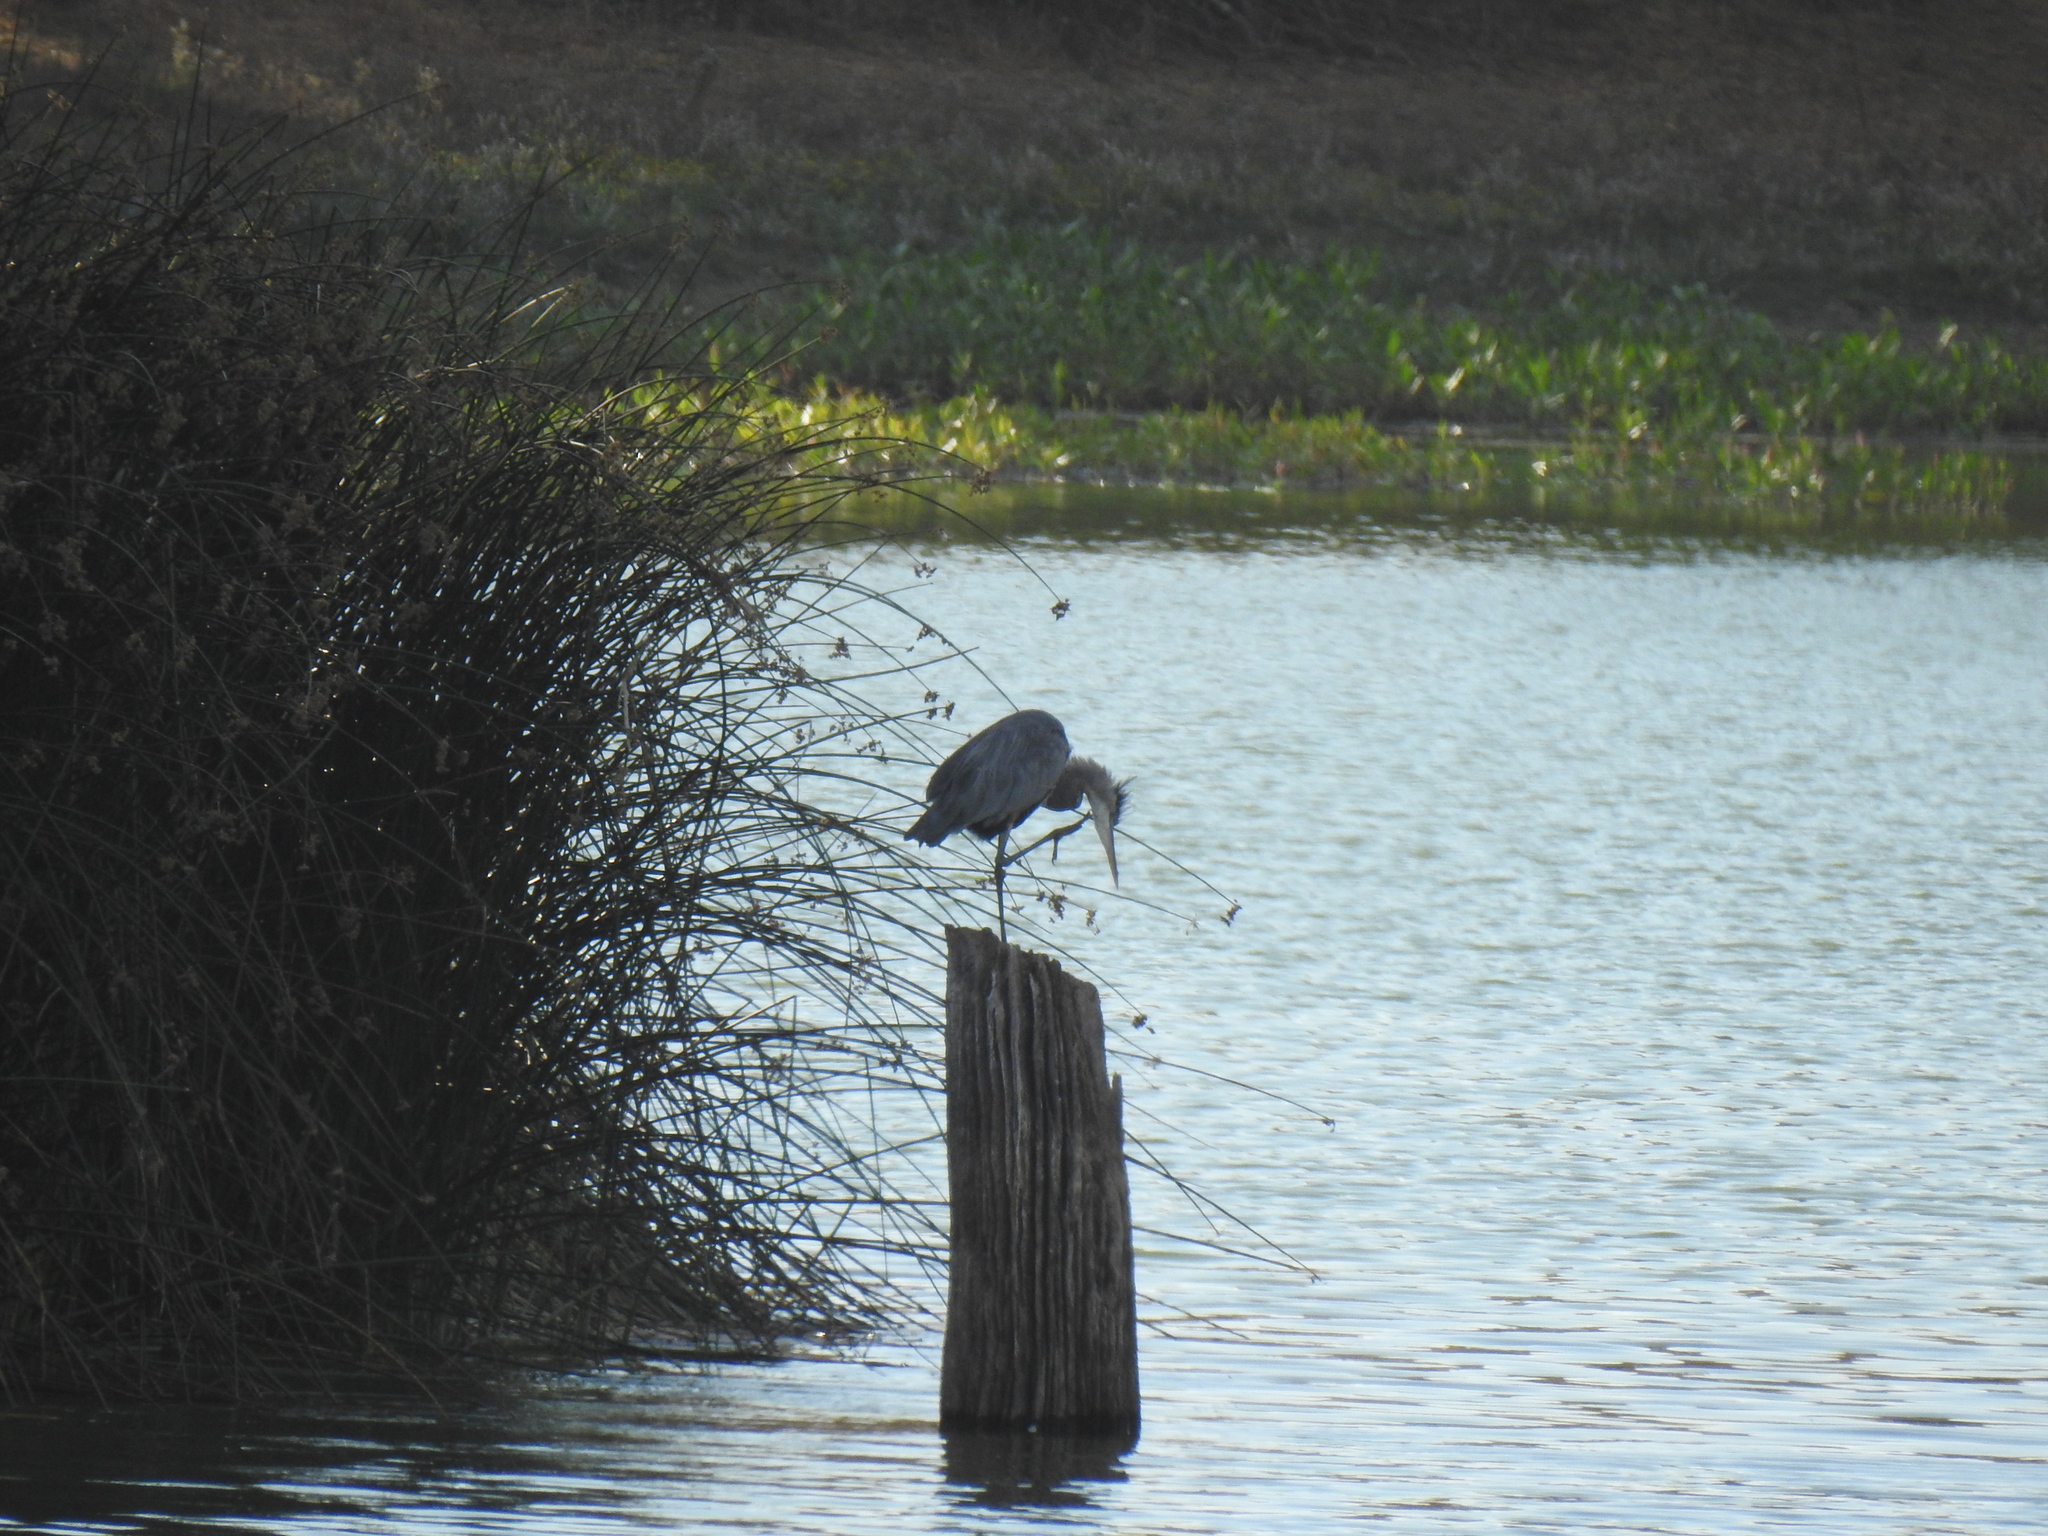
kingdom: Animalia
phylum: Chordata
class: Aves
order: Pelecaniformes
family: Ardeidae
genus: Ardea
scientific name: Ardea herodias
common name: Great blue heron
